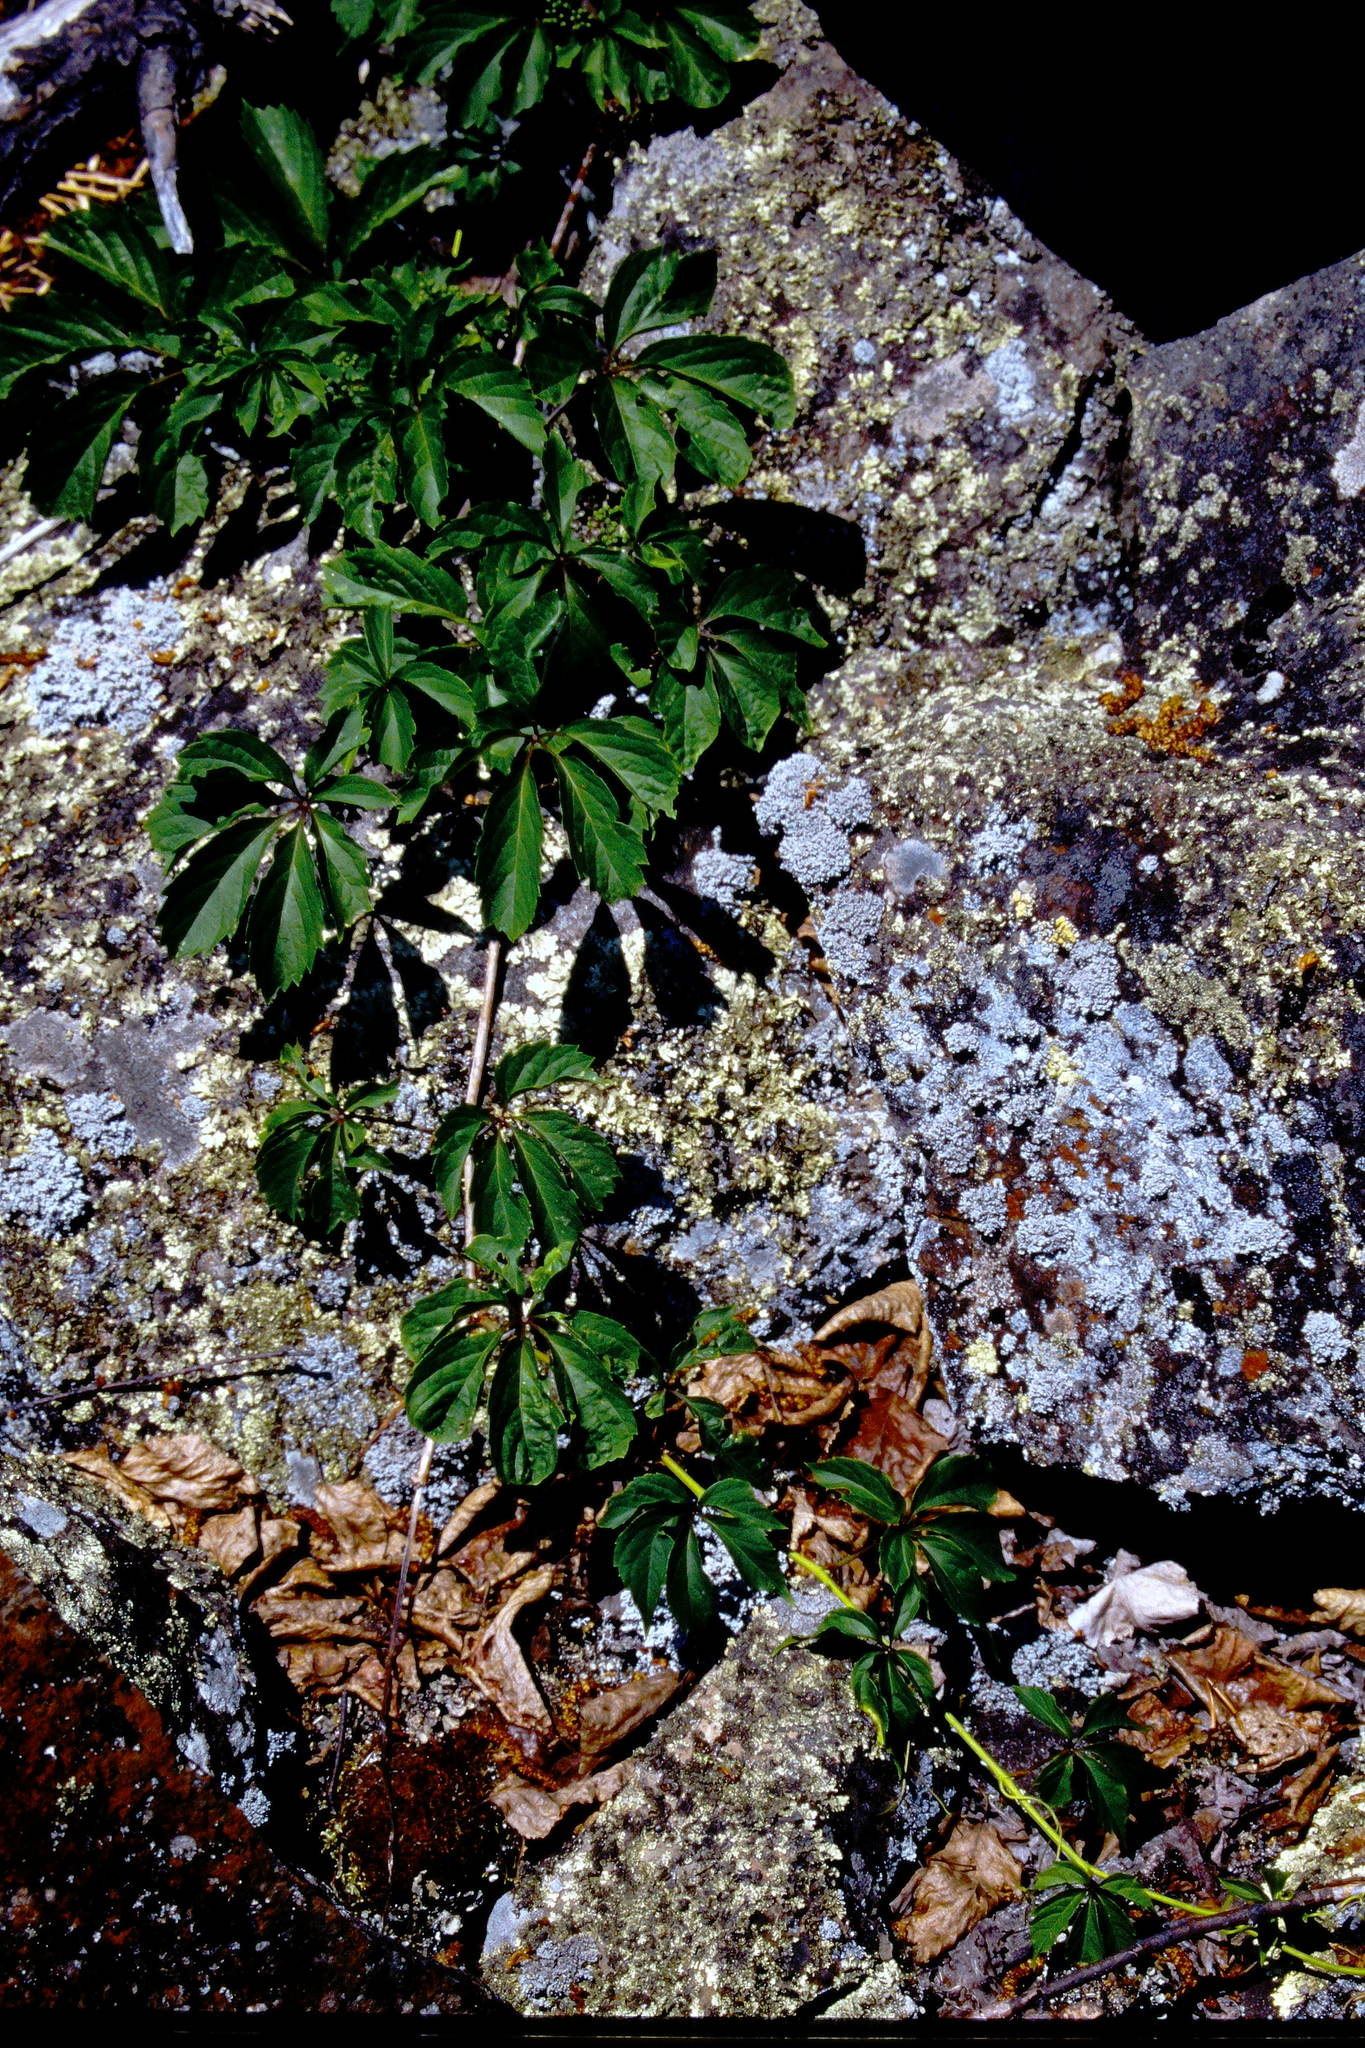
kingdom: Plantae
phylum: Tracheophyta
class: Magnoliopsida
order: Vitales
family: Vitaceae
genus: Parthenocissus
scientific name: Parthenocissus quinquefolia
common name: Virginia-creeper
